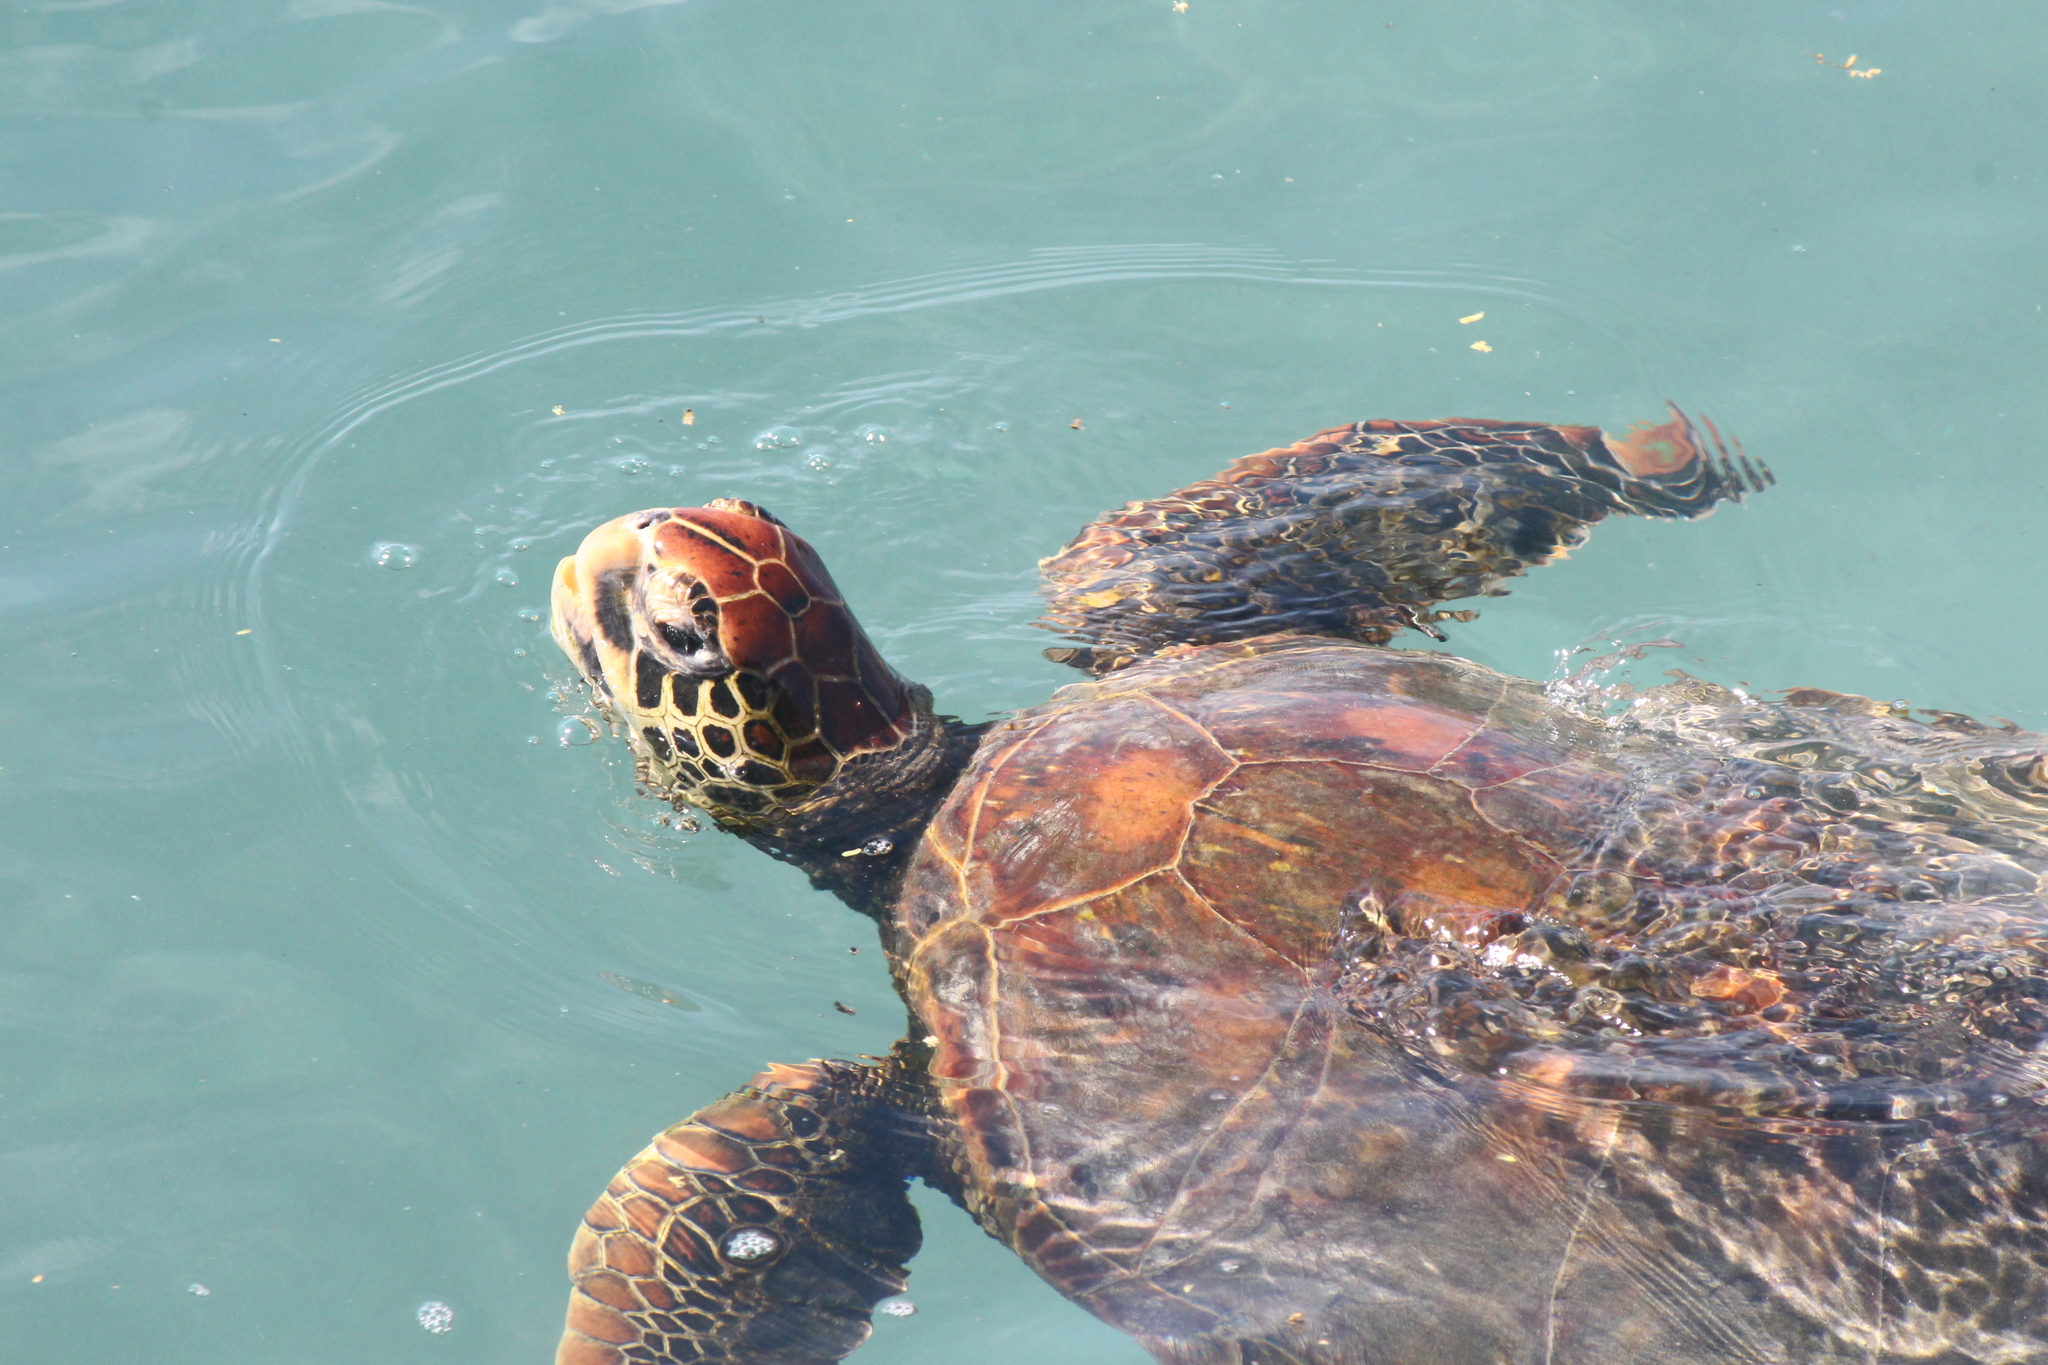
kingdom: Animalia
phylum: Chordata
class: Testudines
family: Cheloniidae
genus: Chelonia
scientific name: Chelonia mydas
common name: Green turtle
